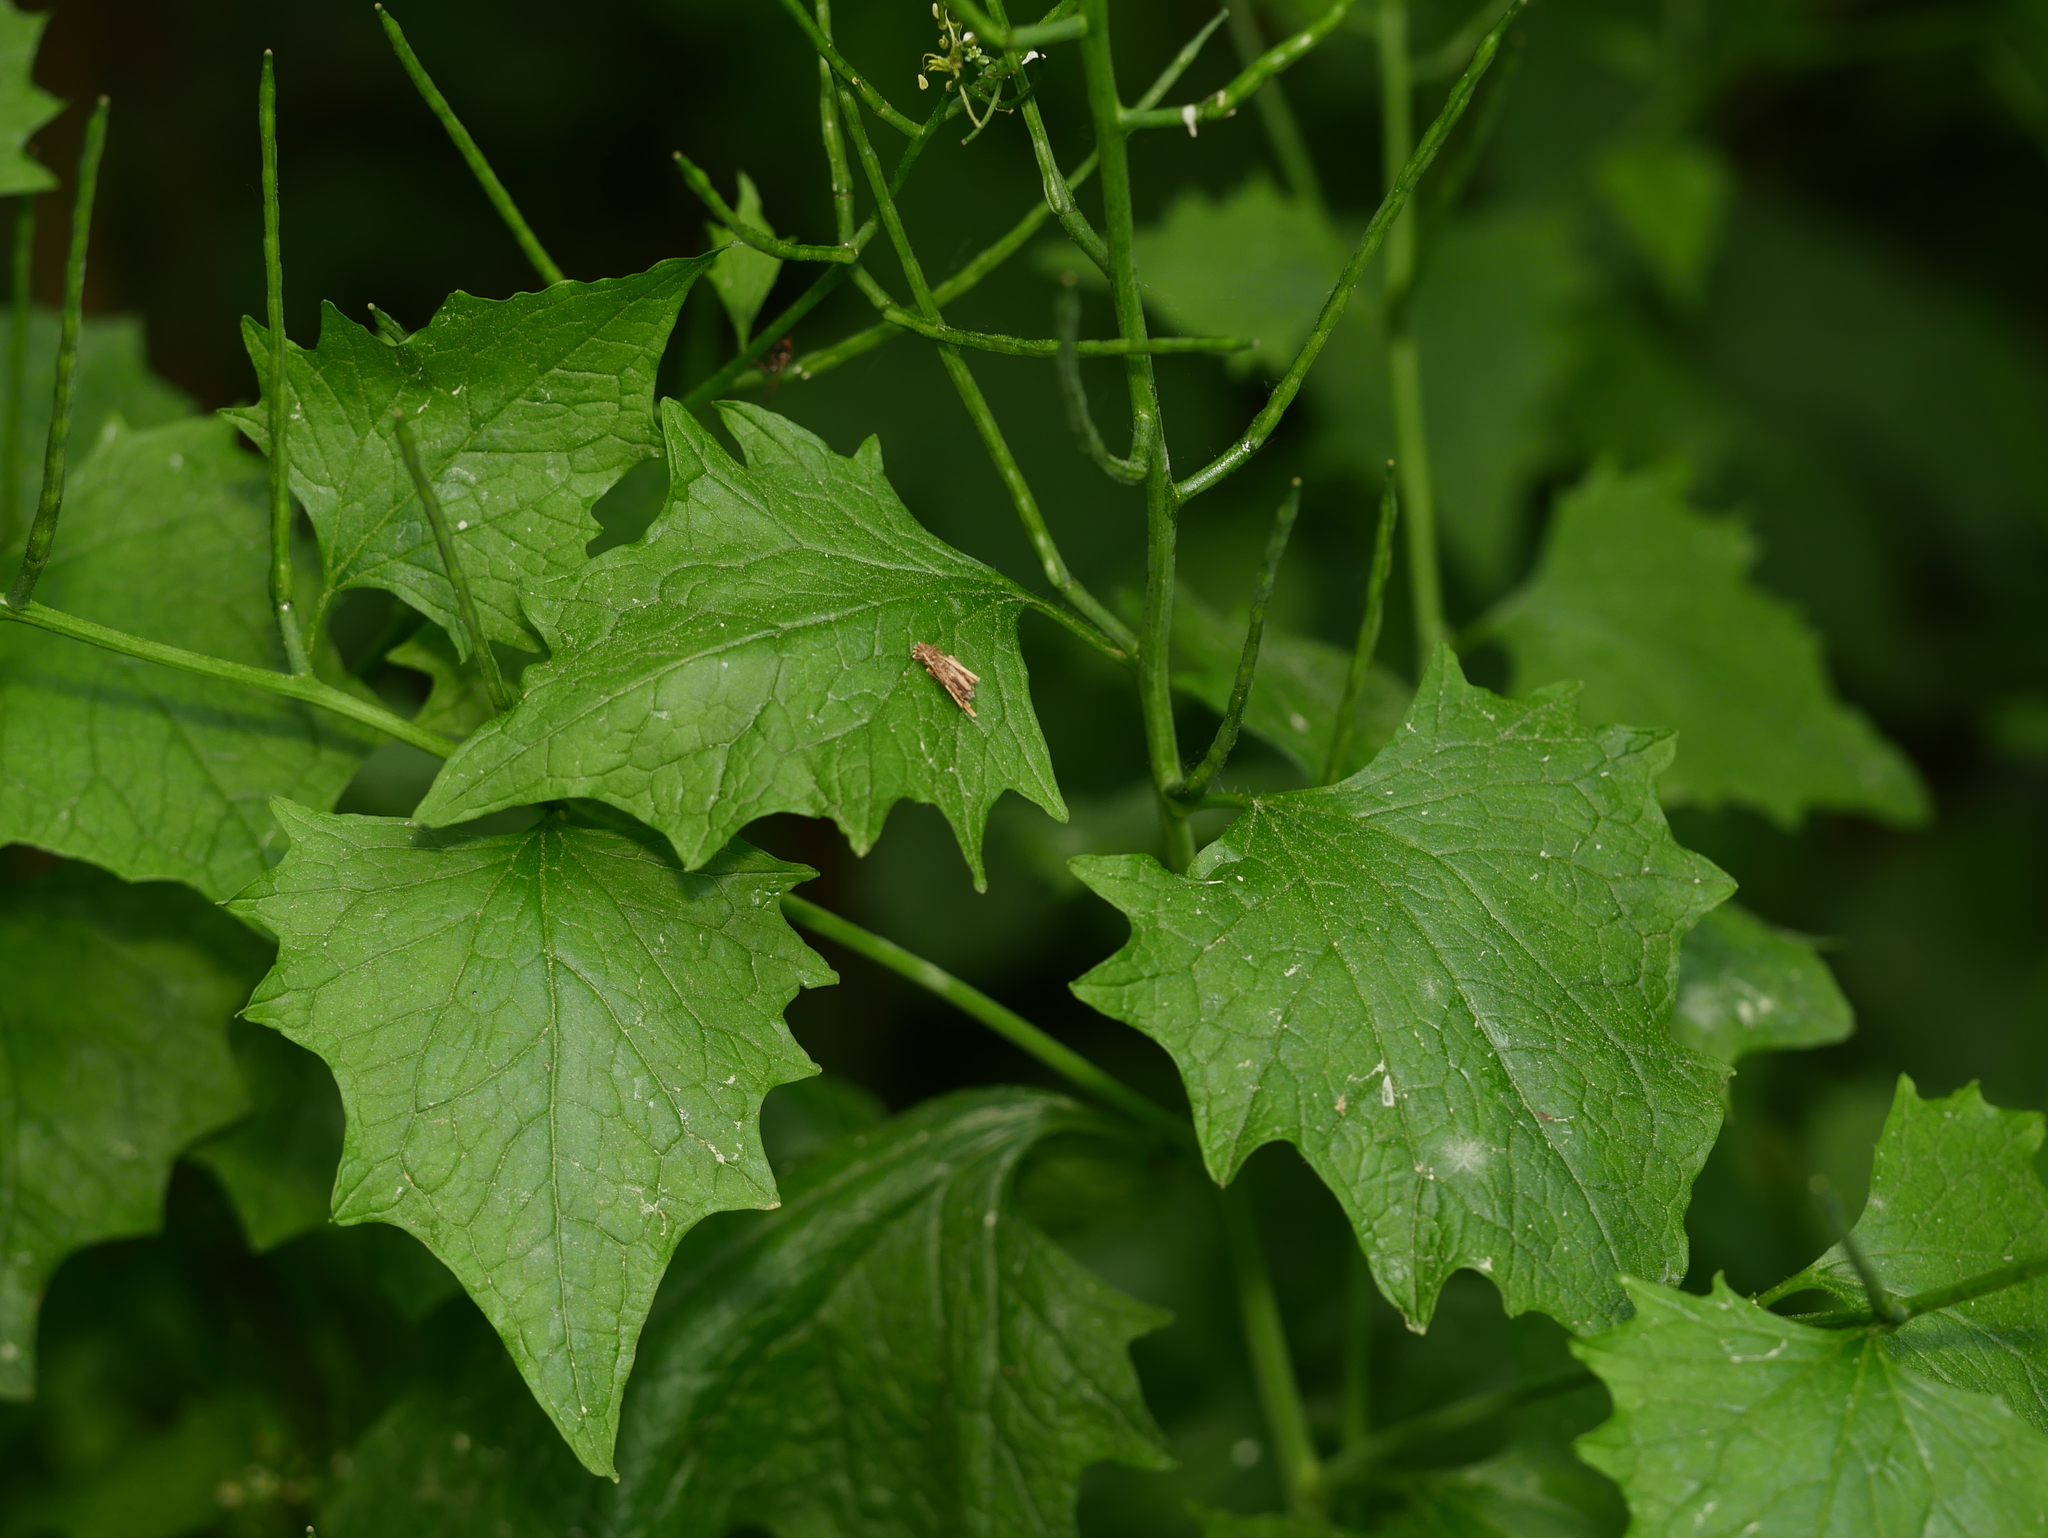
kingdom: Plantae
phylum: Tracheophyta
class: Magnoliopsida
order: Brassicales
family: Brassicaceae
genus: Alliaria
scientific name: Alliaria petiolata
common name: Garlic mustard
